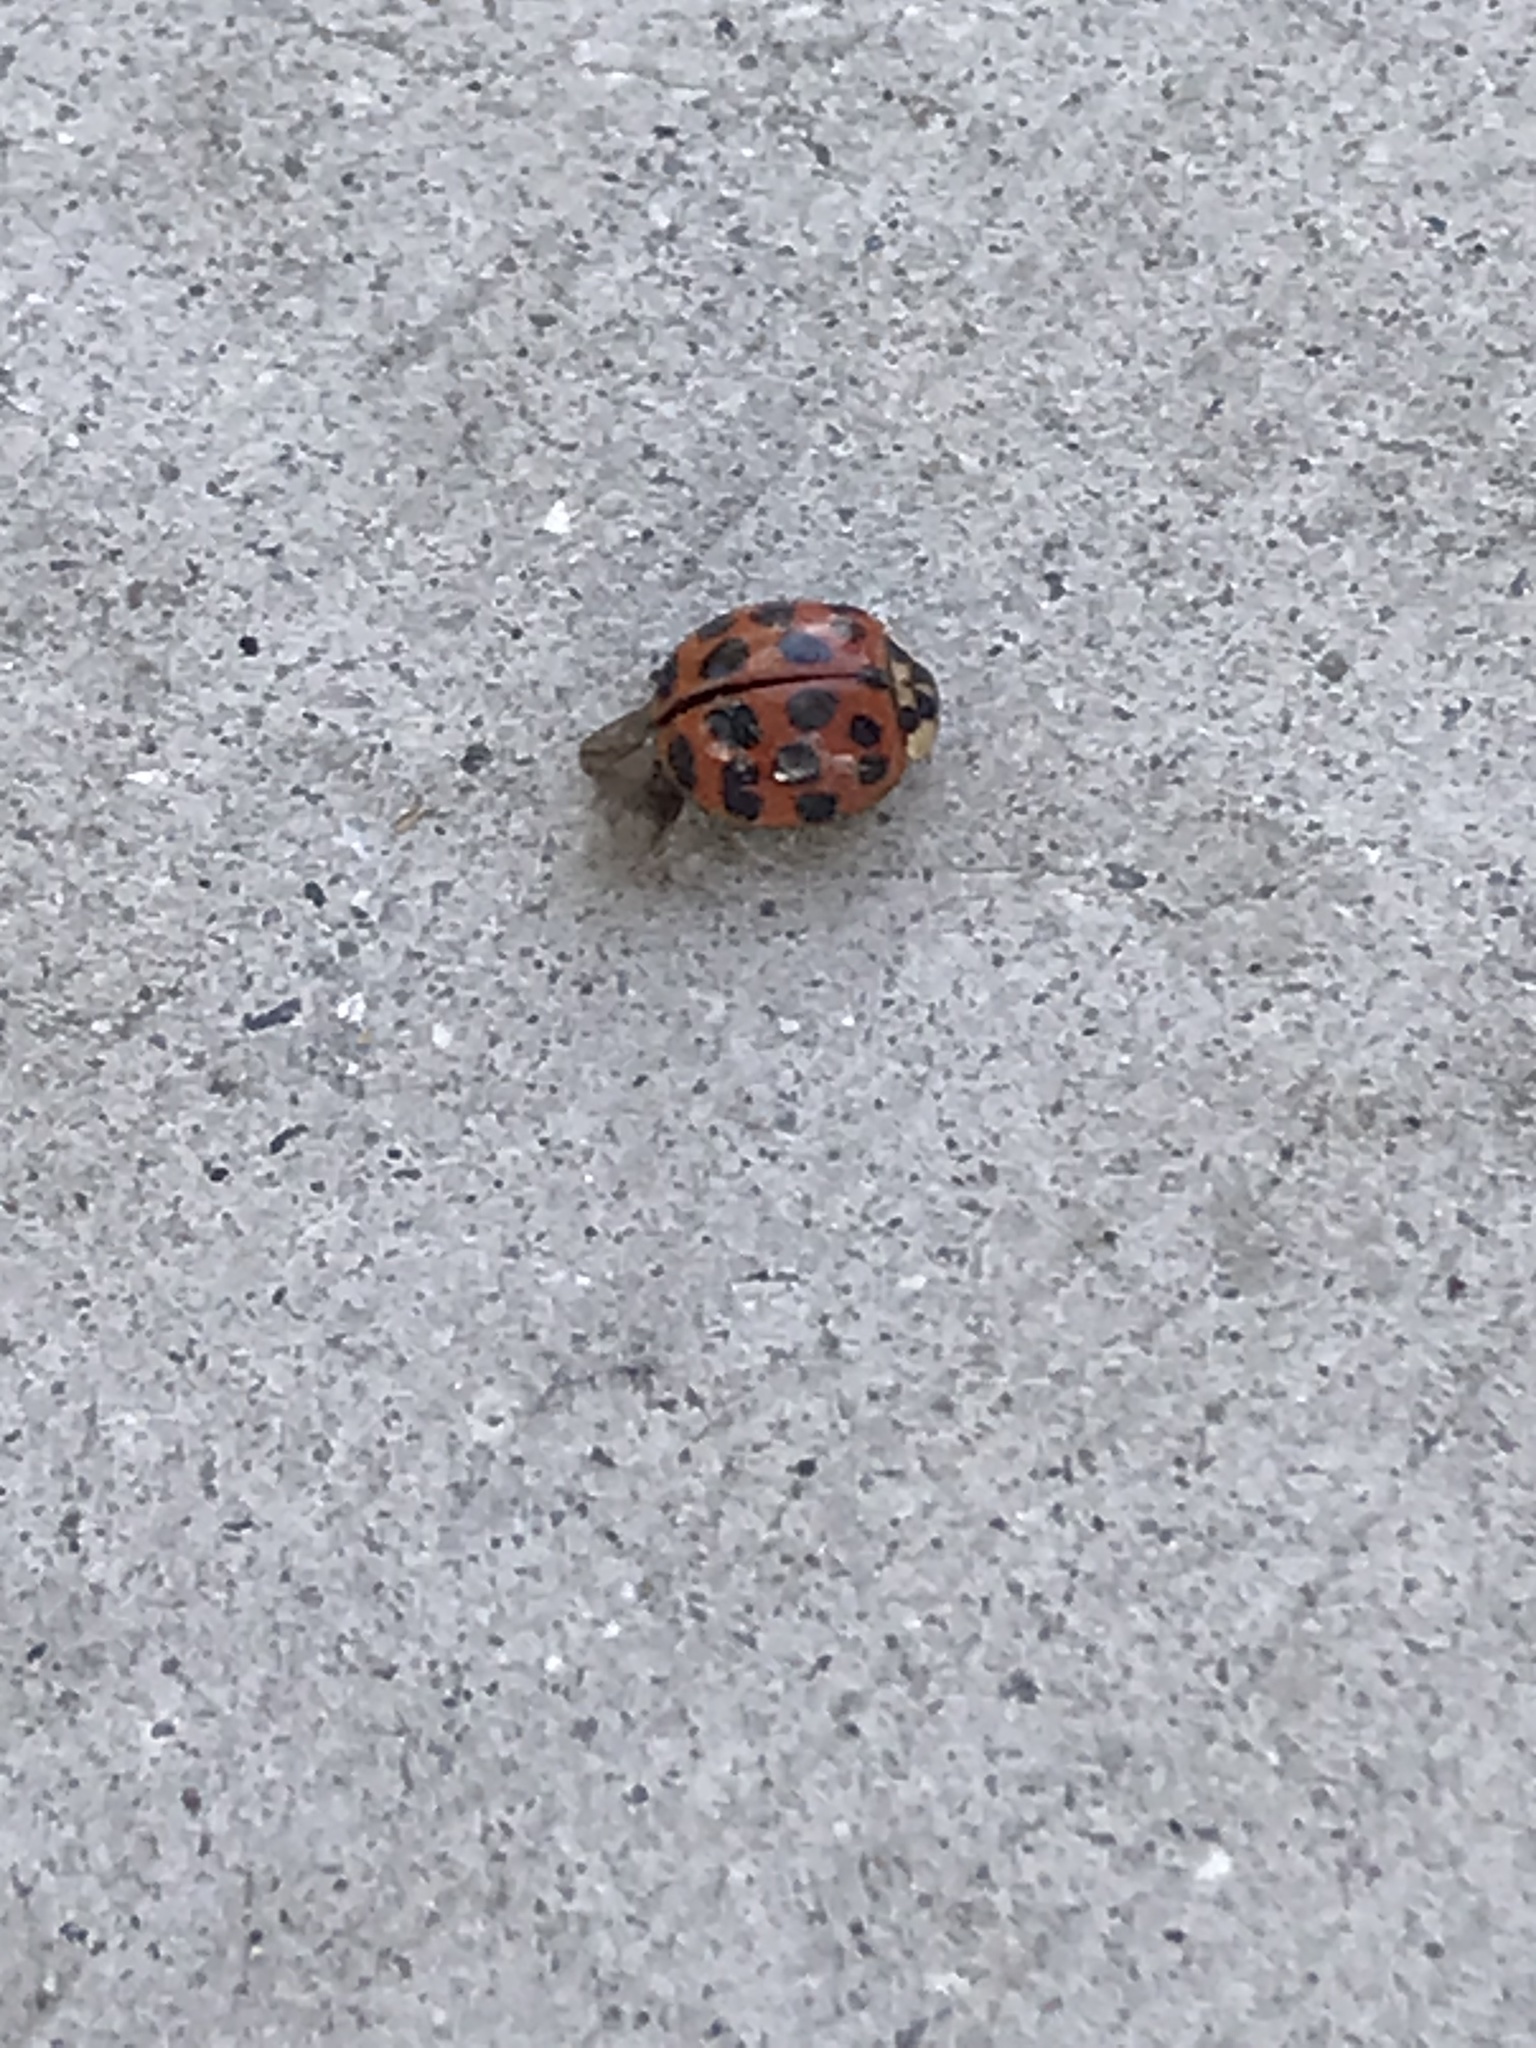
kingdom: Animalia
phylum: Arthropoda
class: Insecta
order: Coleoptera
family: Coccinellidae
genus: Harmonia
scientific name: Harmonia axyridis
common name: Harlequin ladybird
